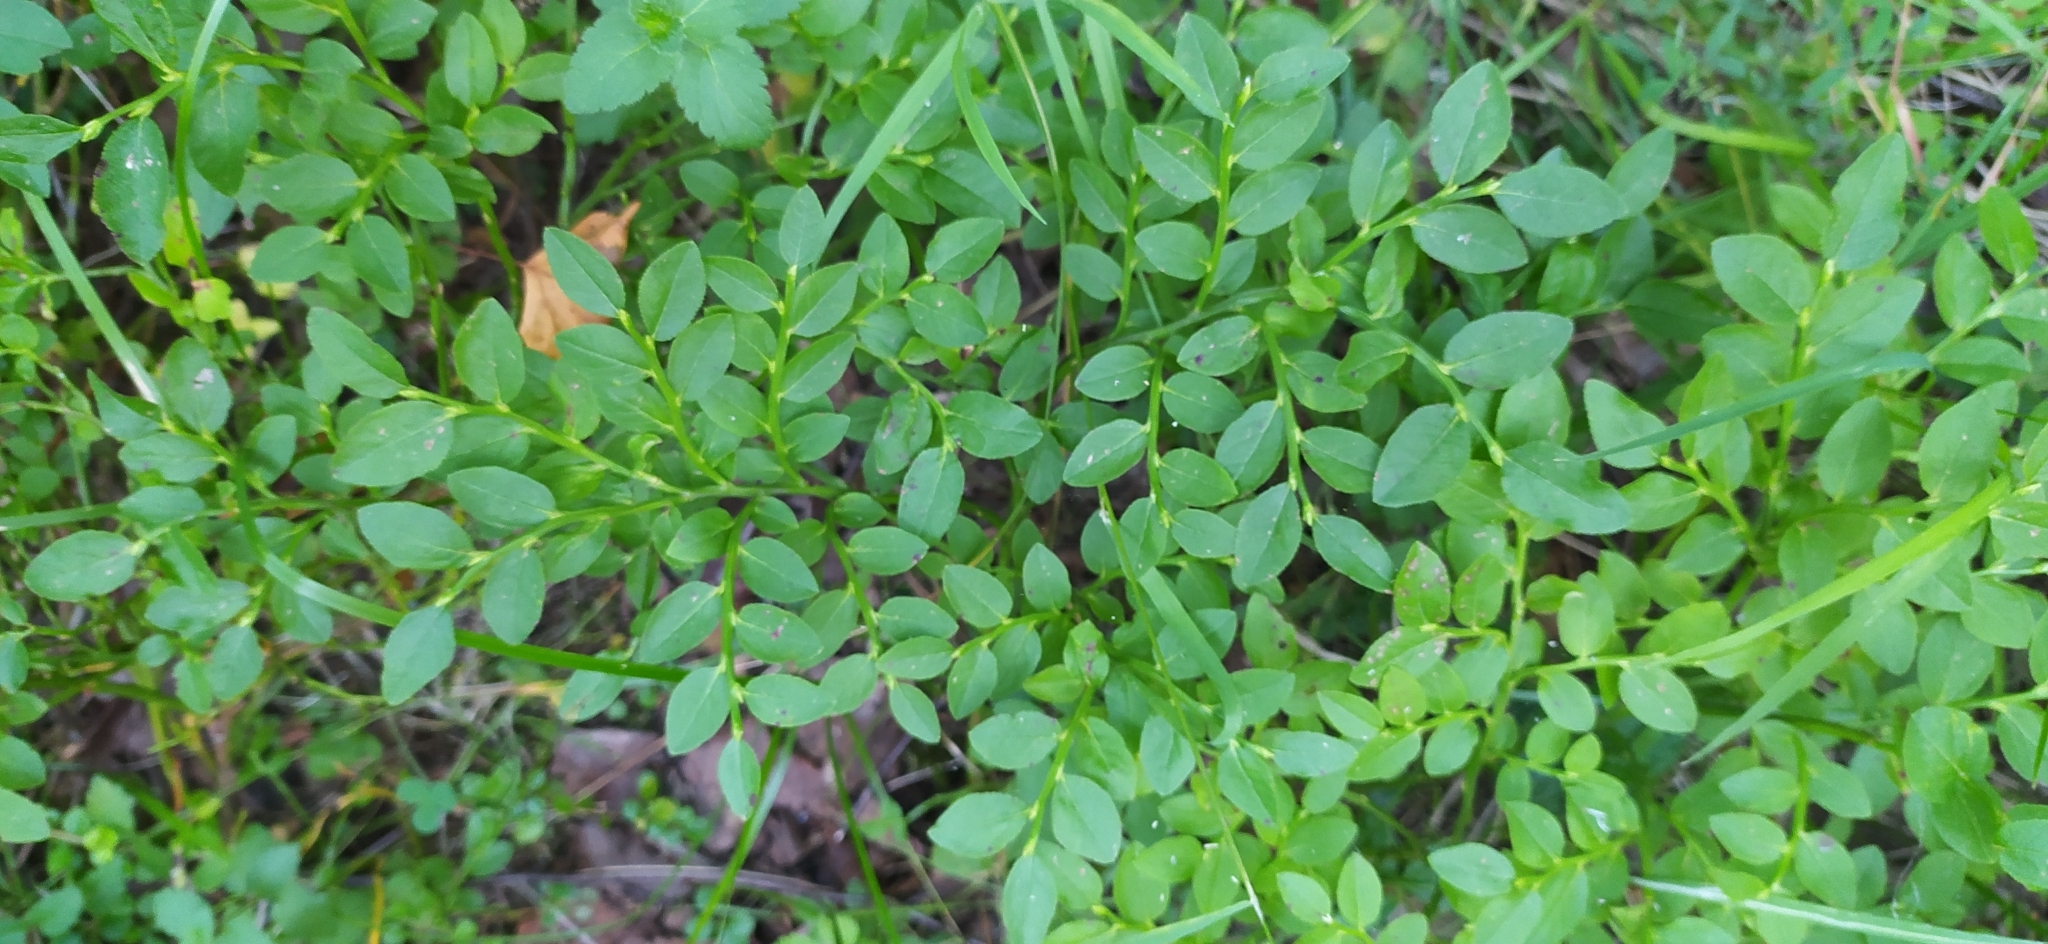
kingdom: Plantae
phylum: Tracheophyta
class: Magnoliopsida
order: Ericales
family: Ericaceae
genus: Vaccinium
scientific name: Vaccinium myrtillus
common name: Bilberry
